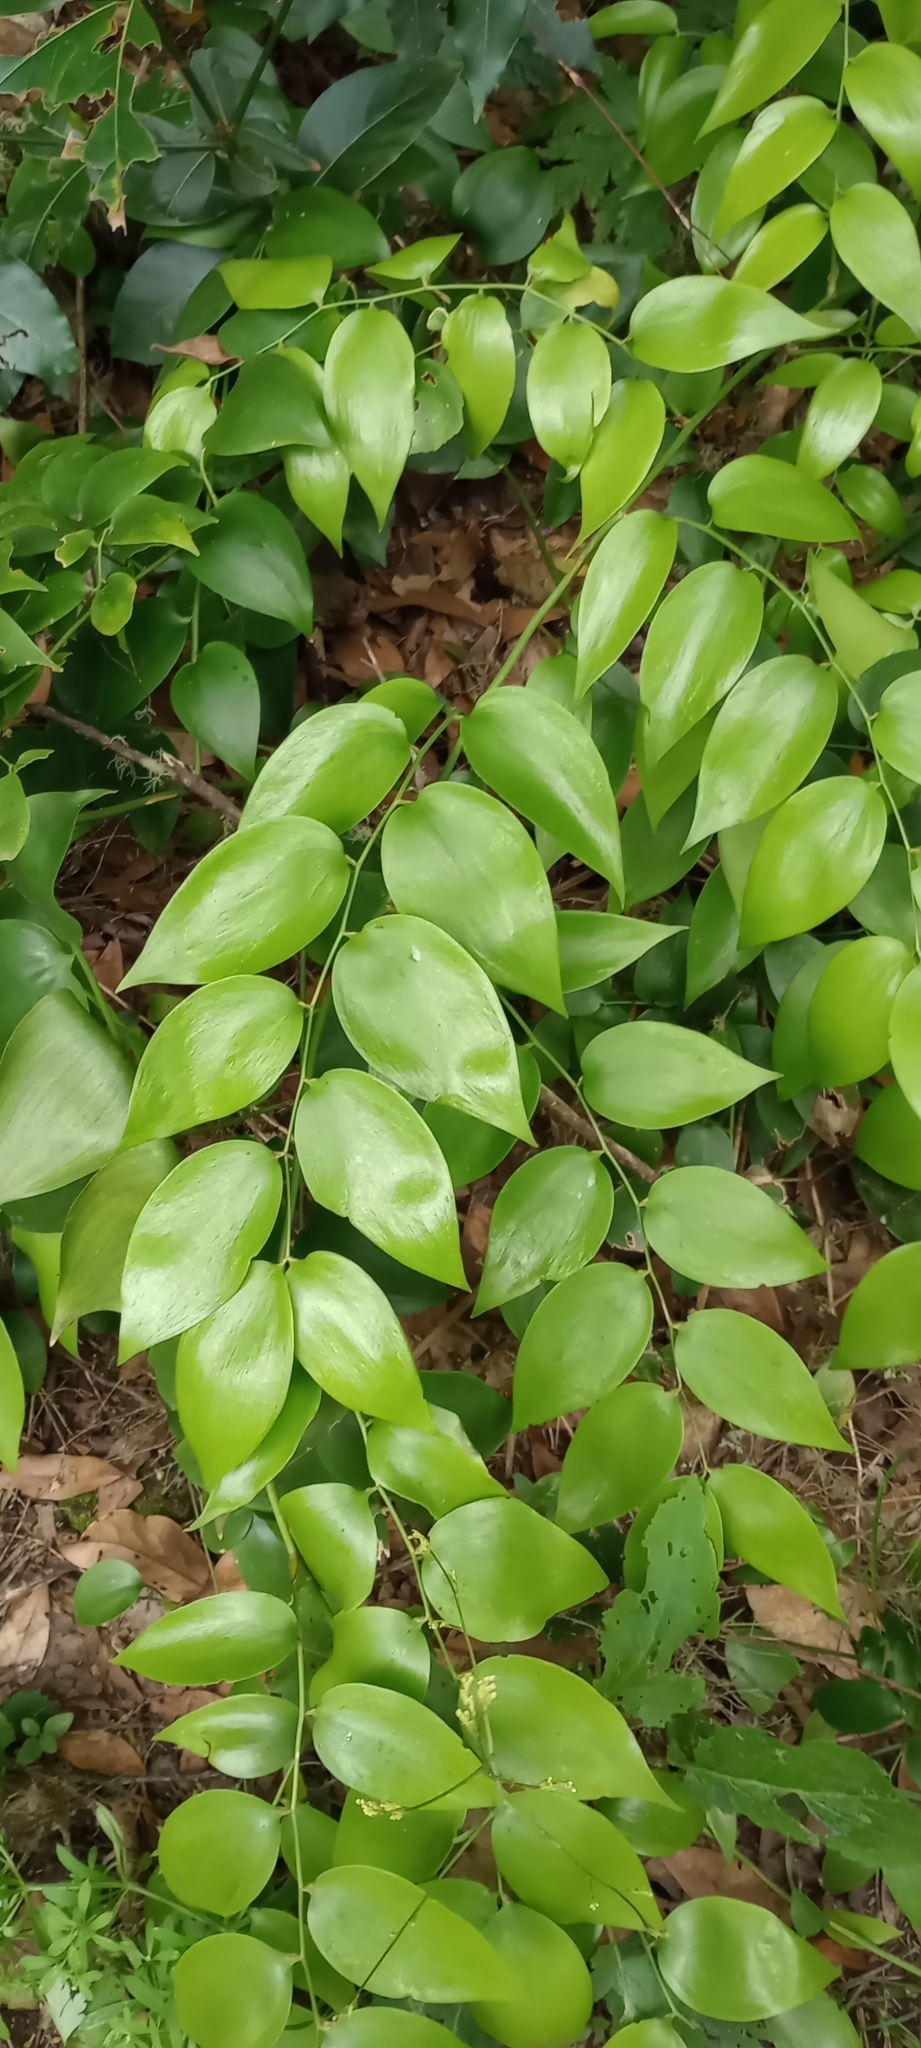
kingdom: Plantae
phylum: Tracheophyta
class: Liliopsida
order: Asparagales
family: Asparagaceae
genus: Semele
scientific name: Semele androgyna
